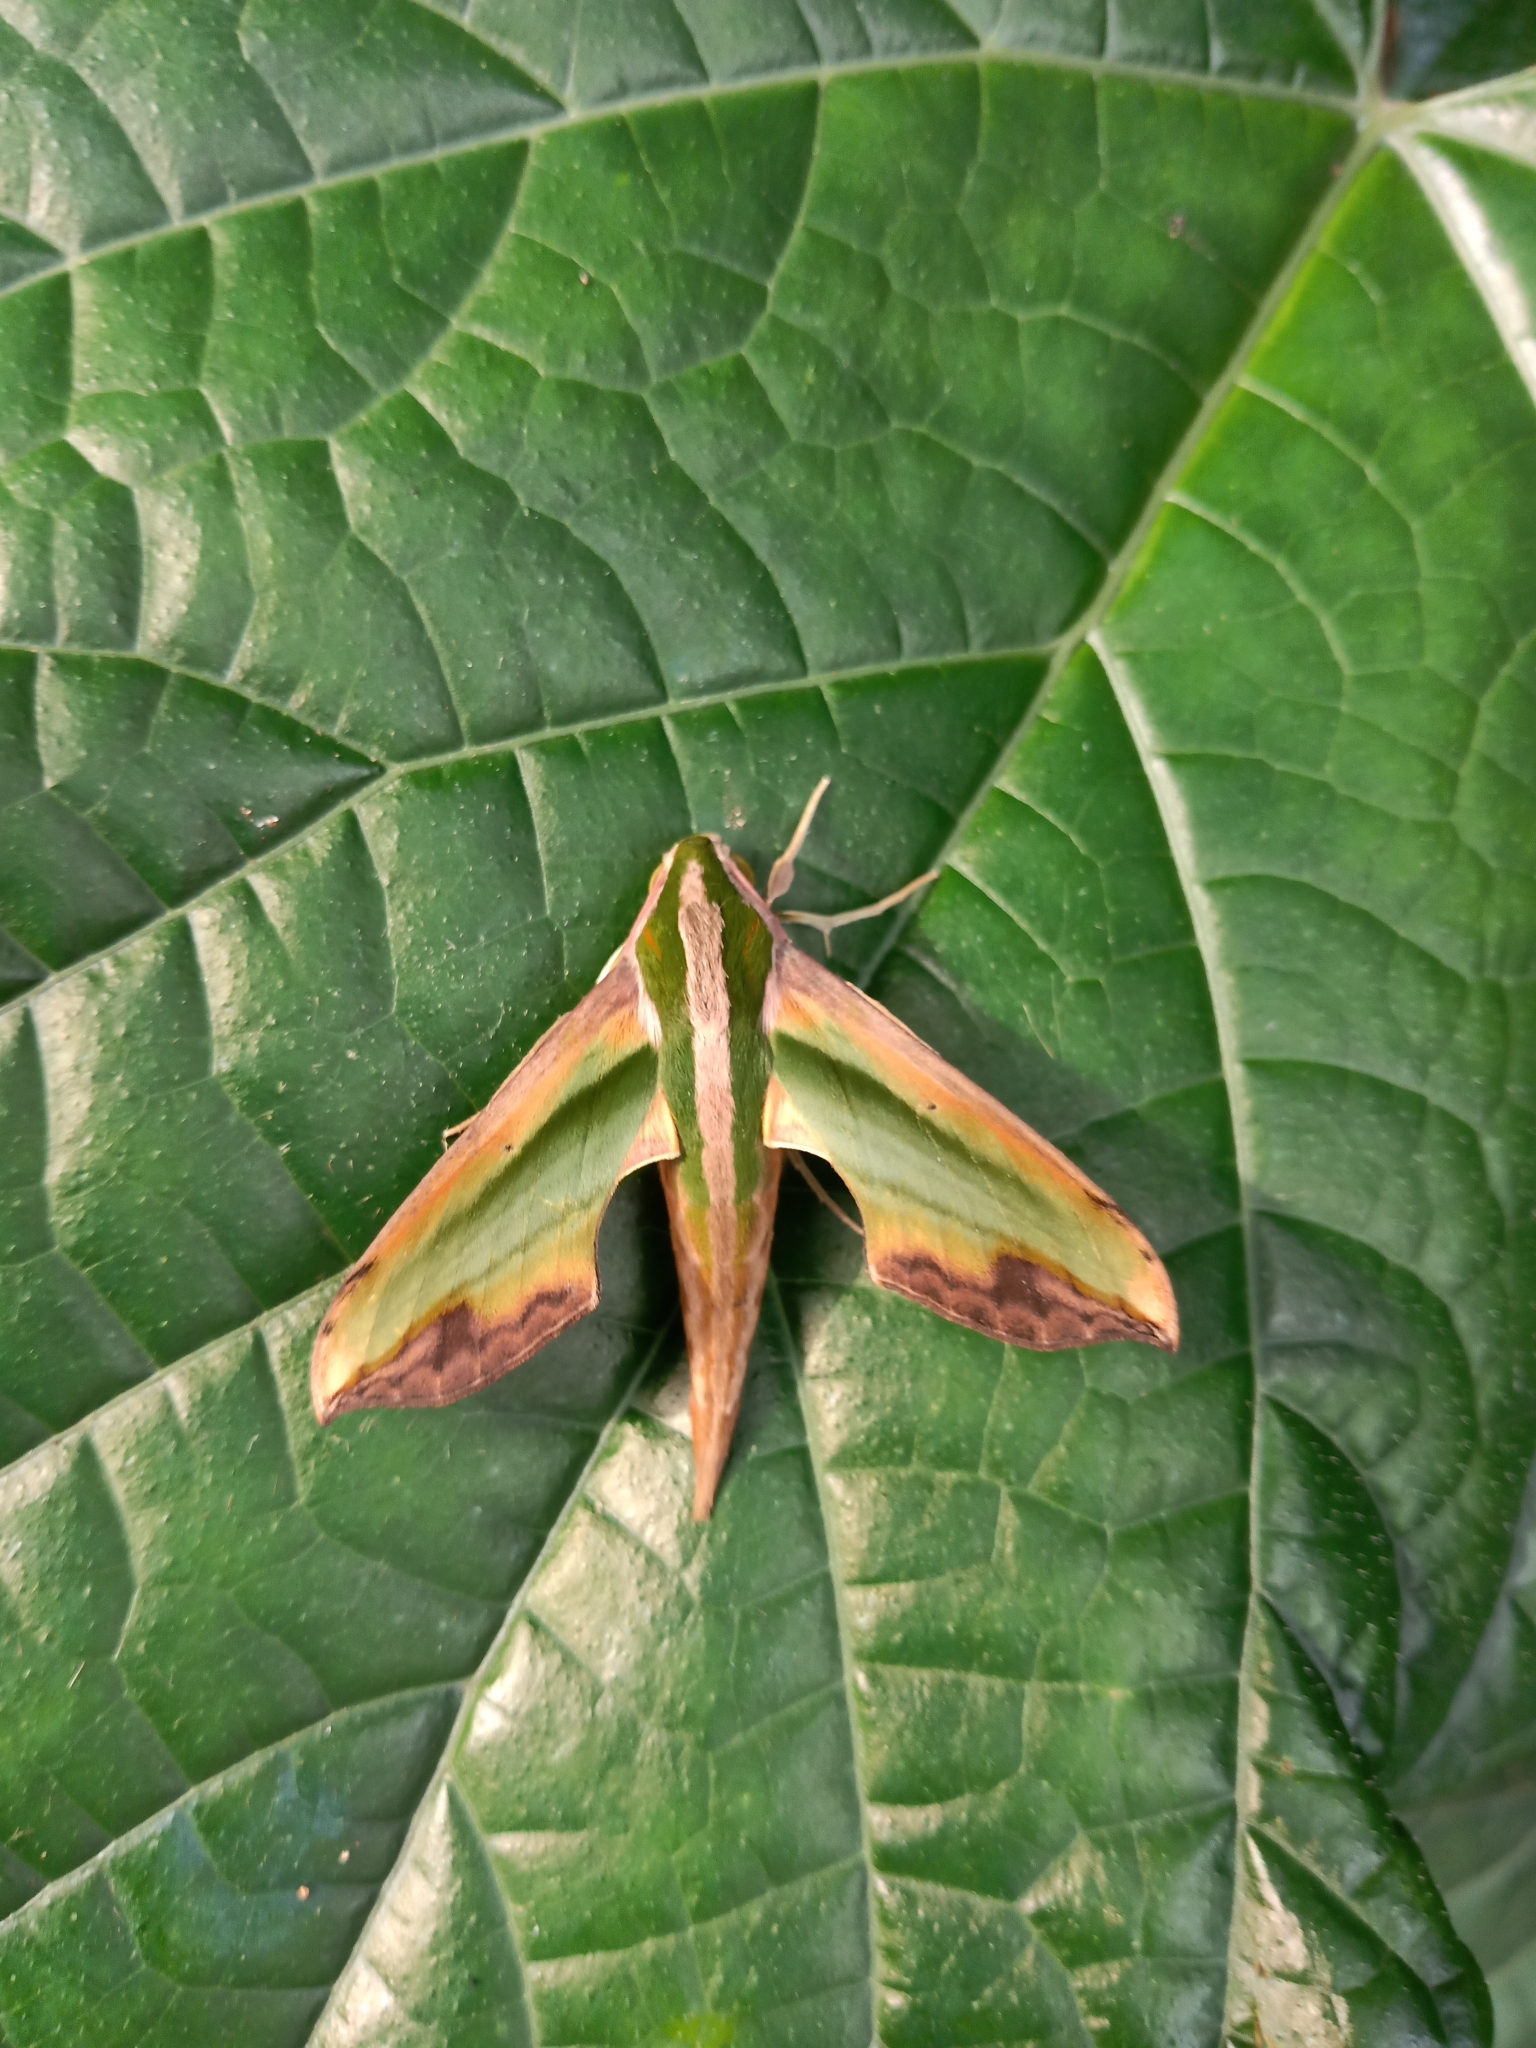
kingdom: Animalia
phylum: Arthropoda
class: Insecta
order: Lepidoptera
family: Sphingidae
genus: Pergesa
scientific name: Pergesa acteus
